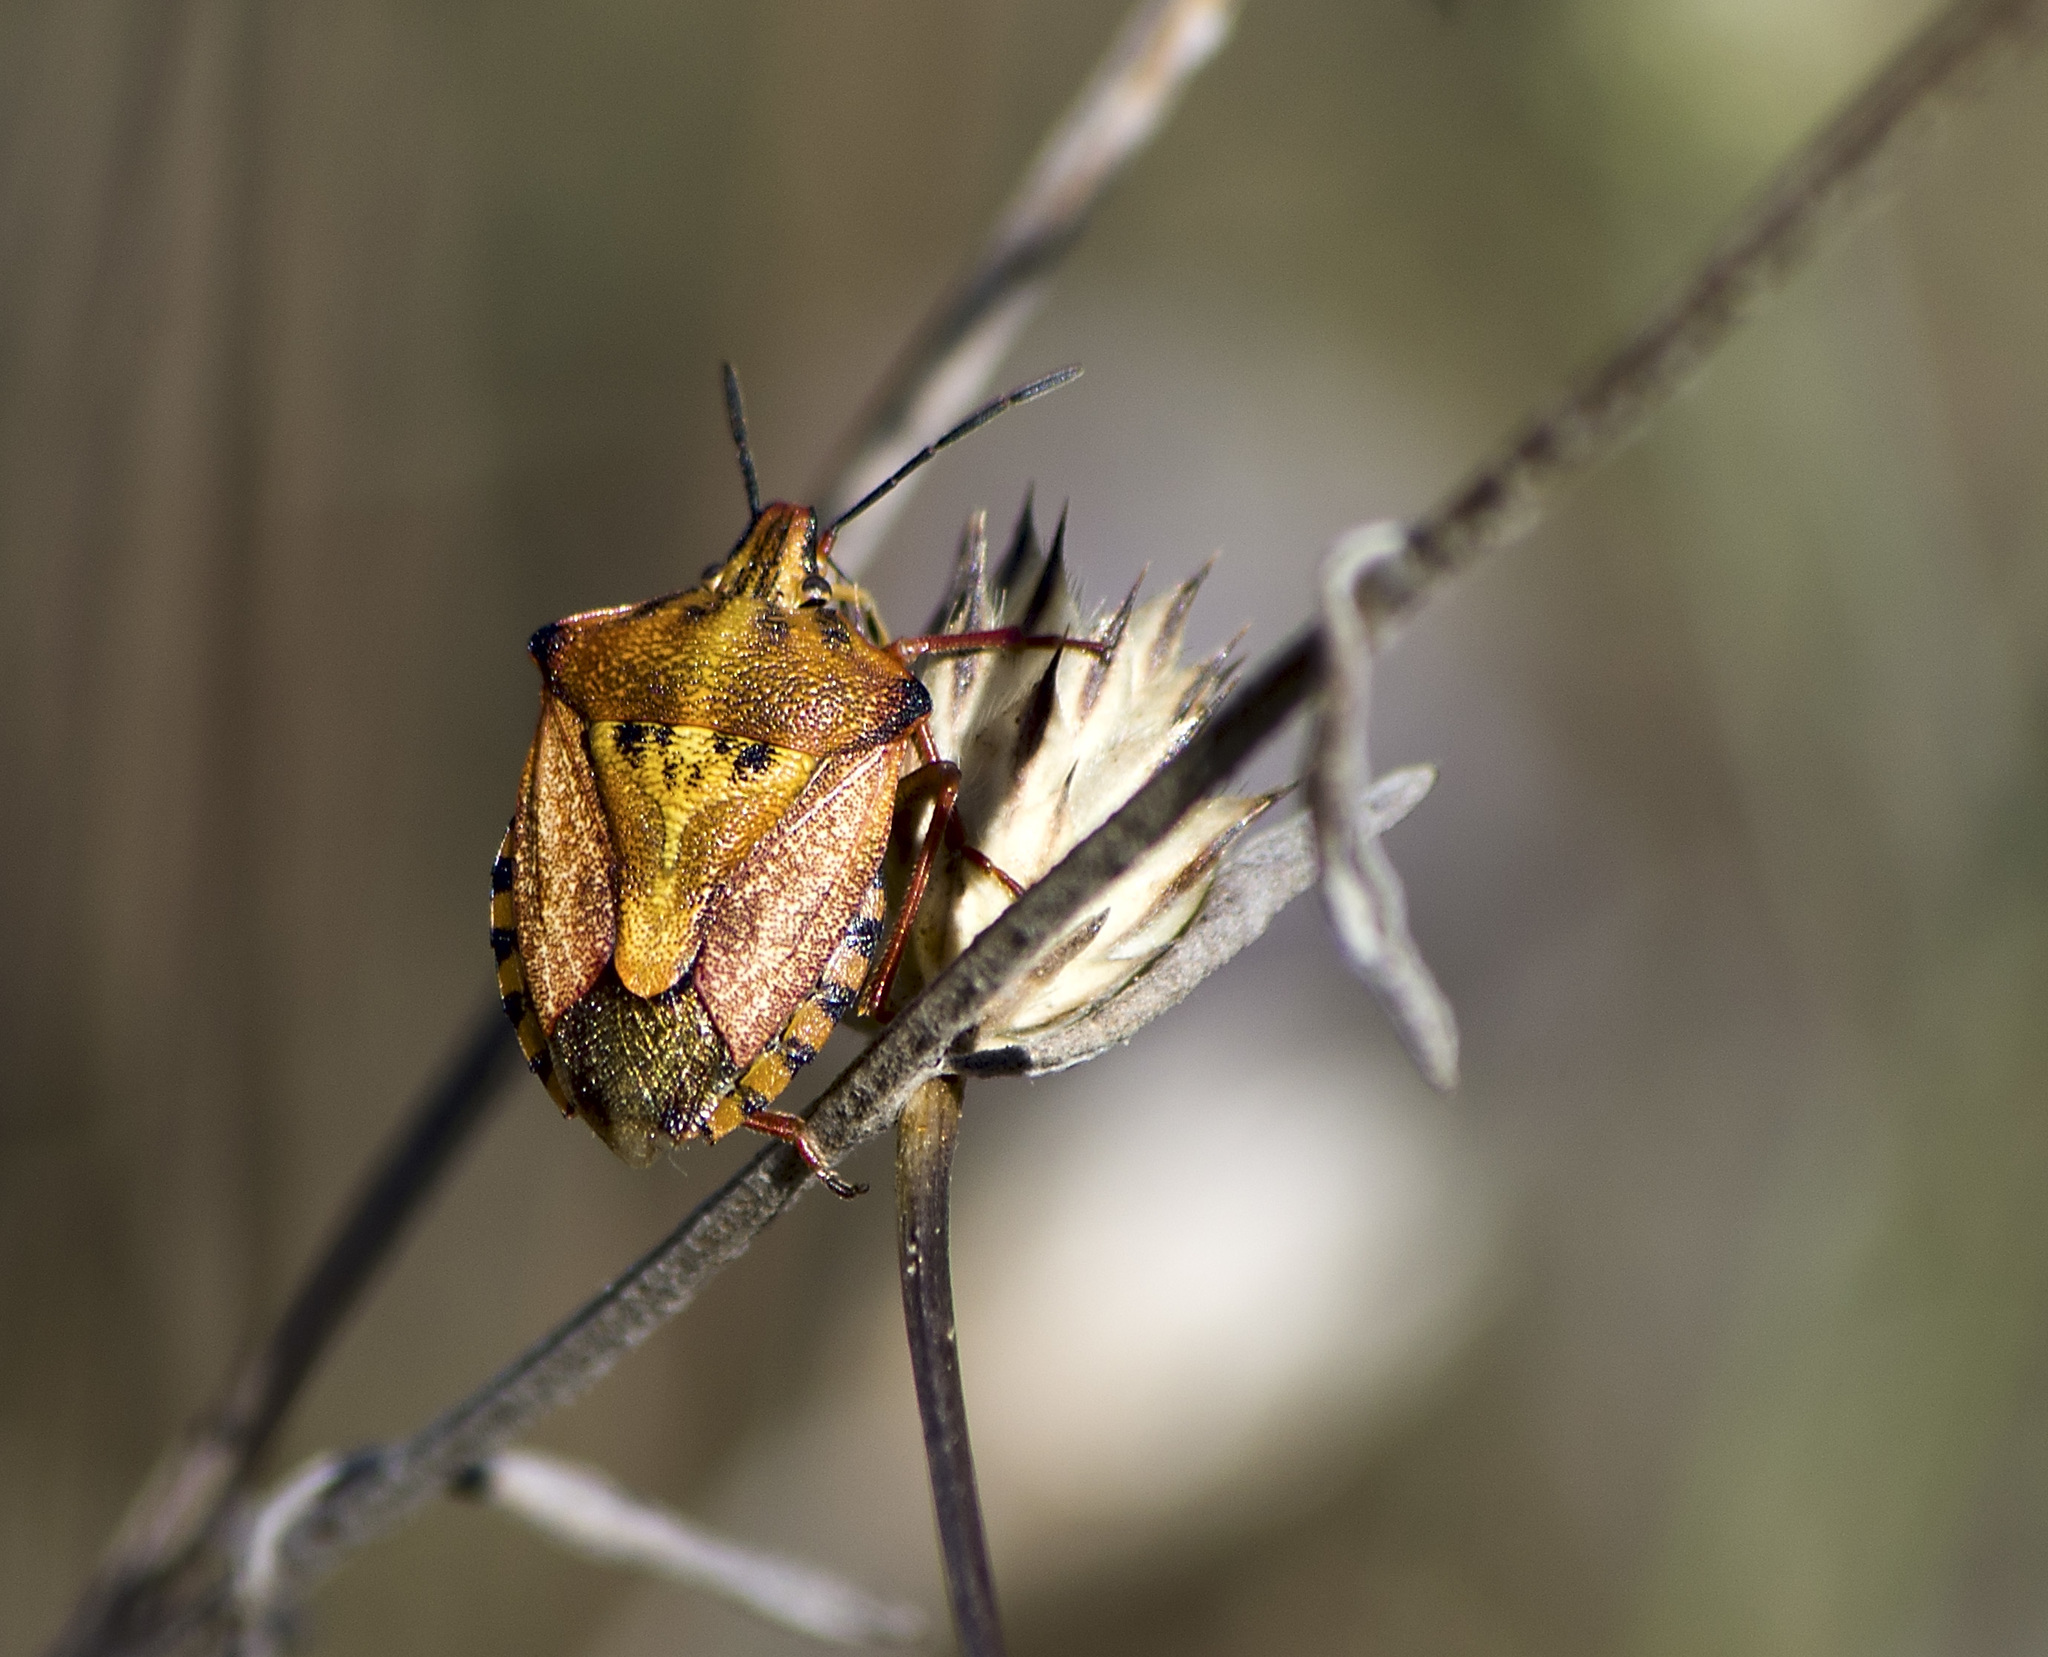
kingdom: Animalia
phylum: Arthropoda
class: Insecta
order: Hemiptera
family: Pentatomidae
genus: Carpocoris
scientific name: Carpocoris mediterraneus
